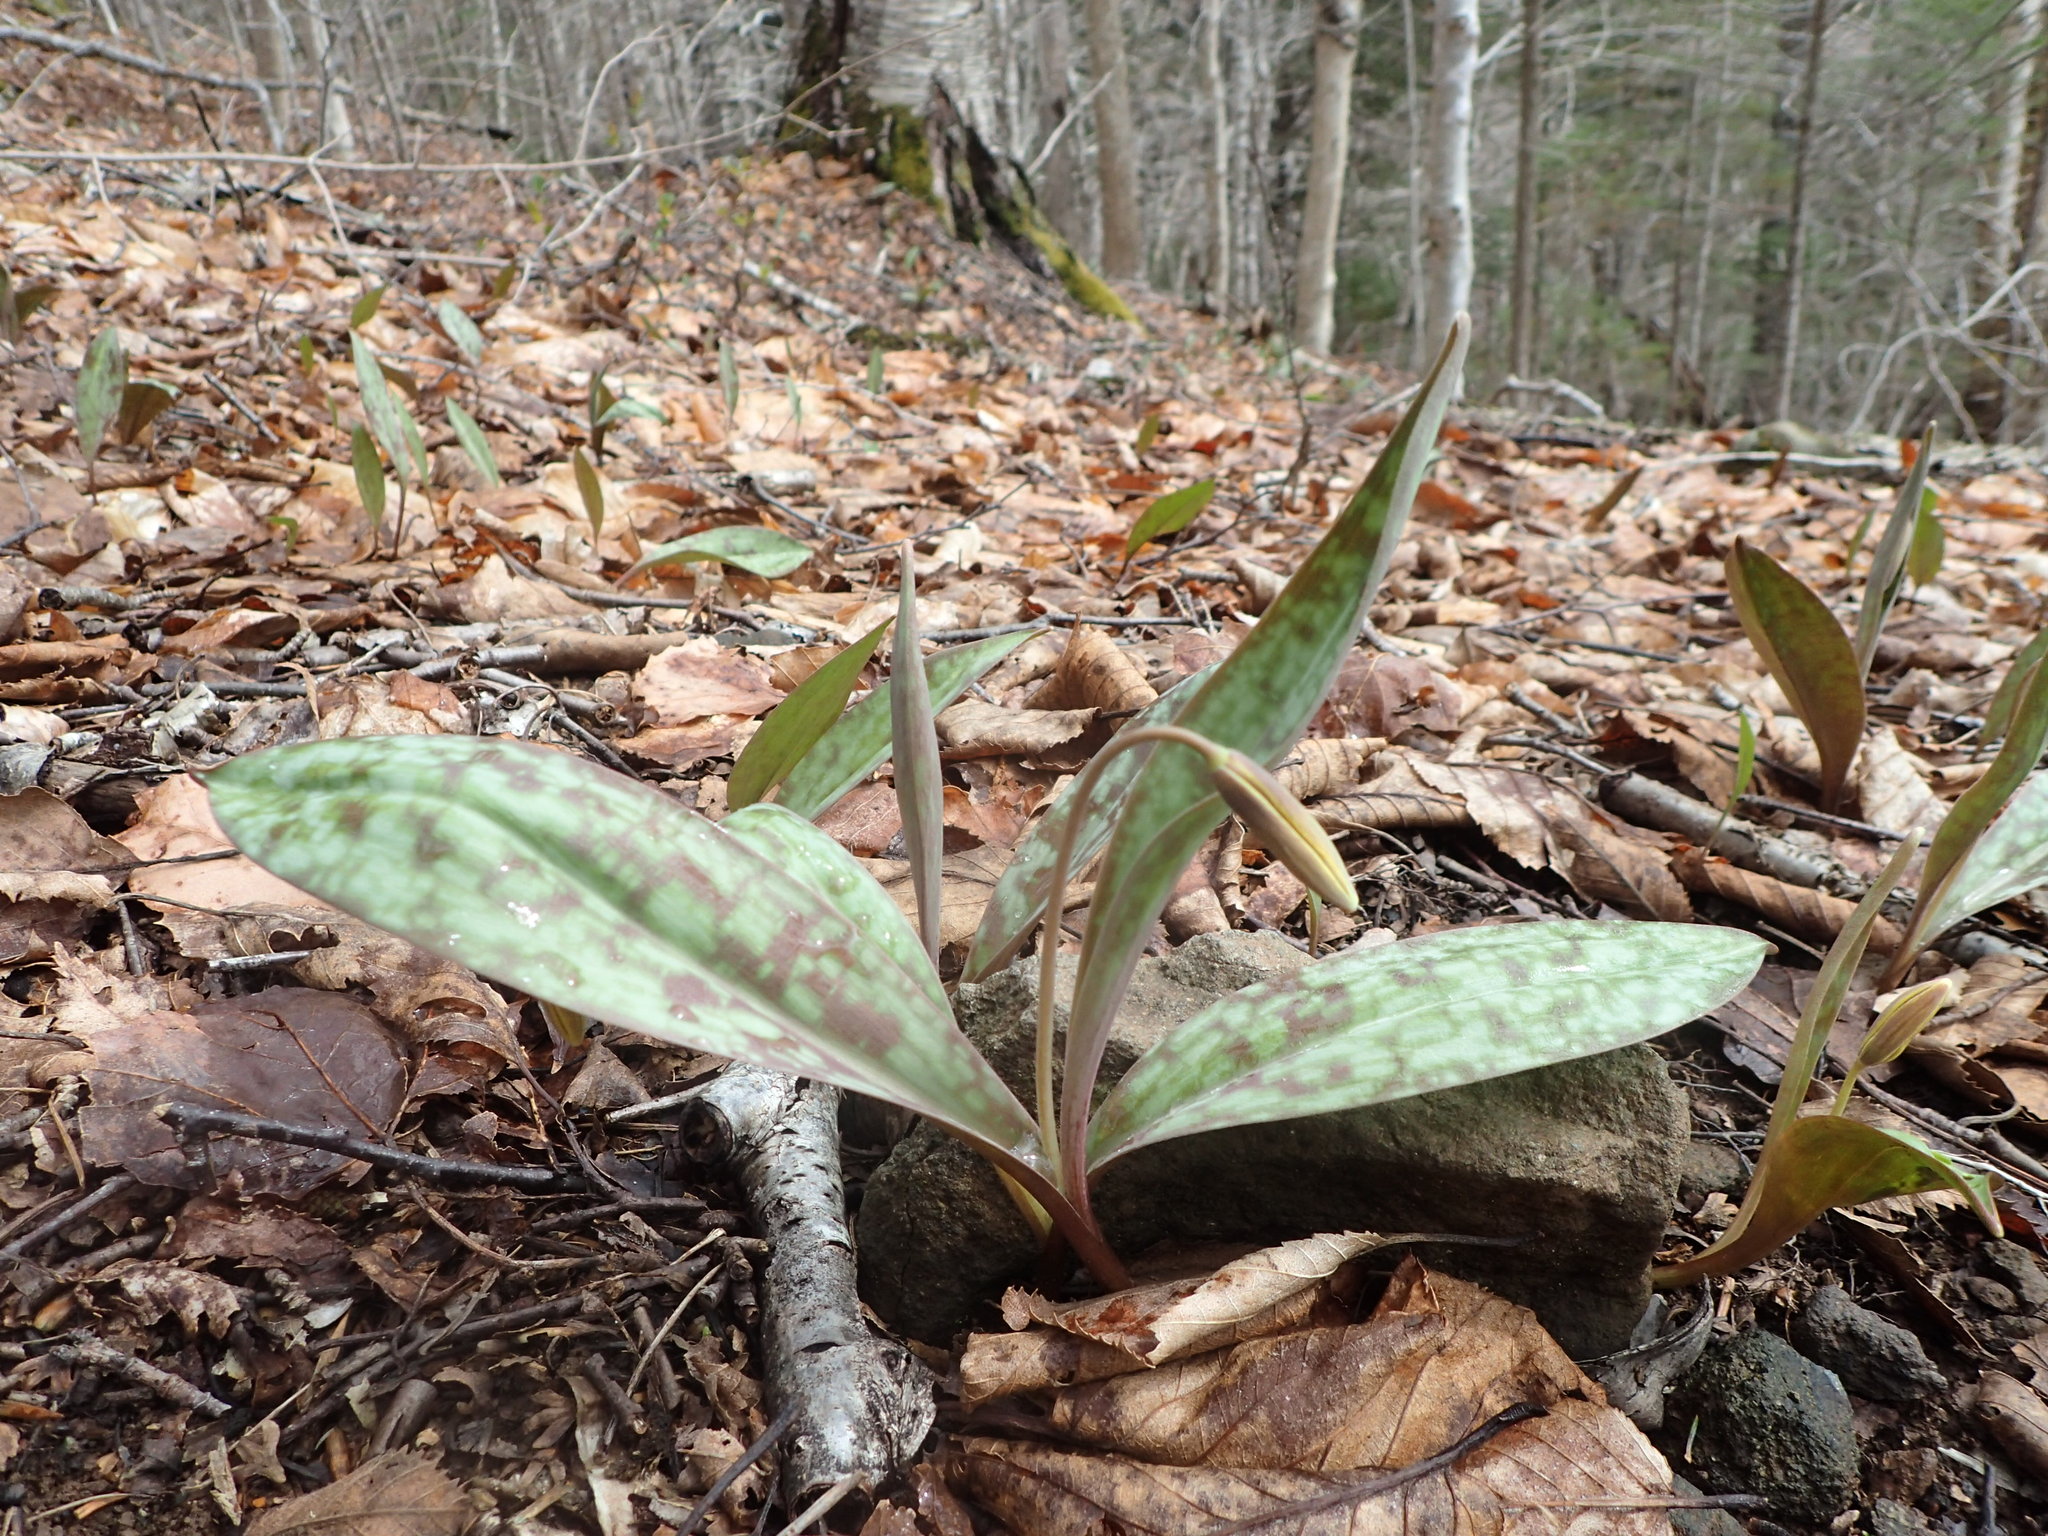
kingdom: Plantae
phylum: Tracheophyta
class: Liliopsida
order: Liliales
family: Liliaceae
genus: Erythronium
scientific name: Erythronium americanum
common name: Yellow adder's-tongue
